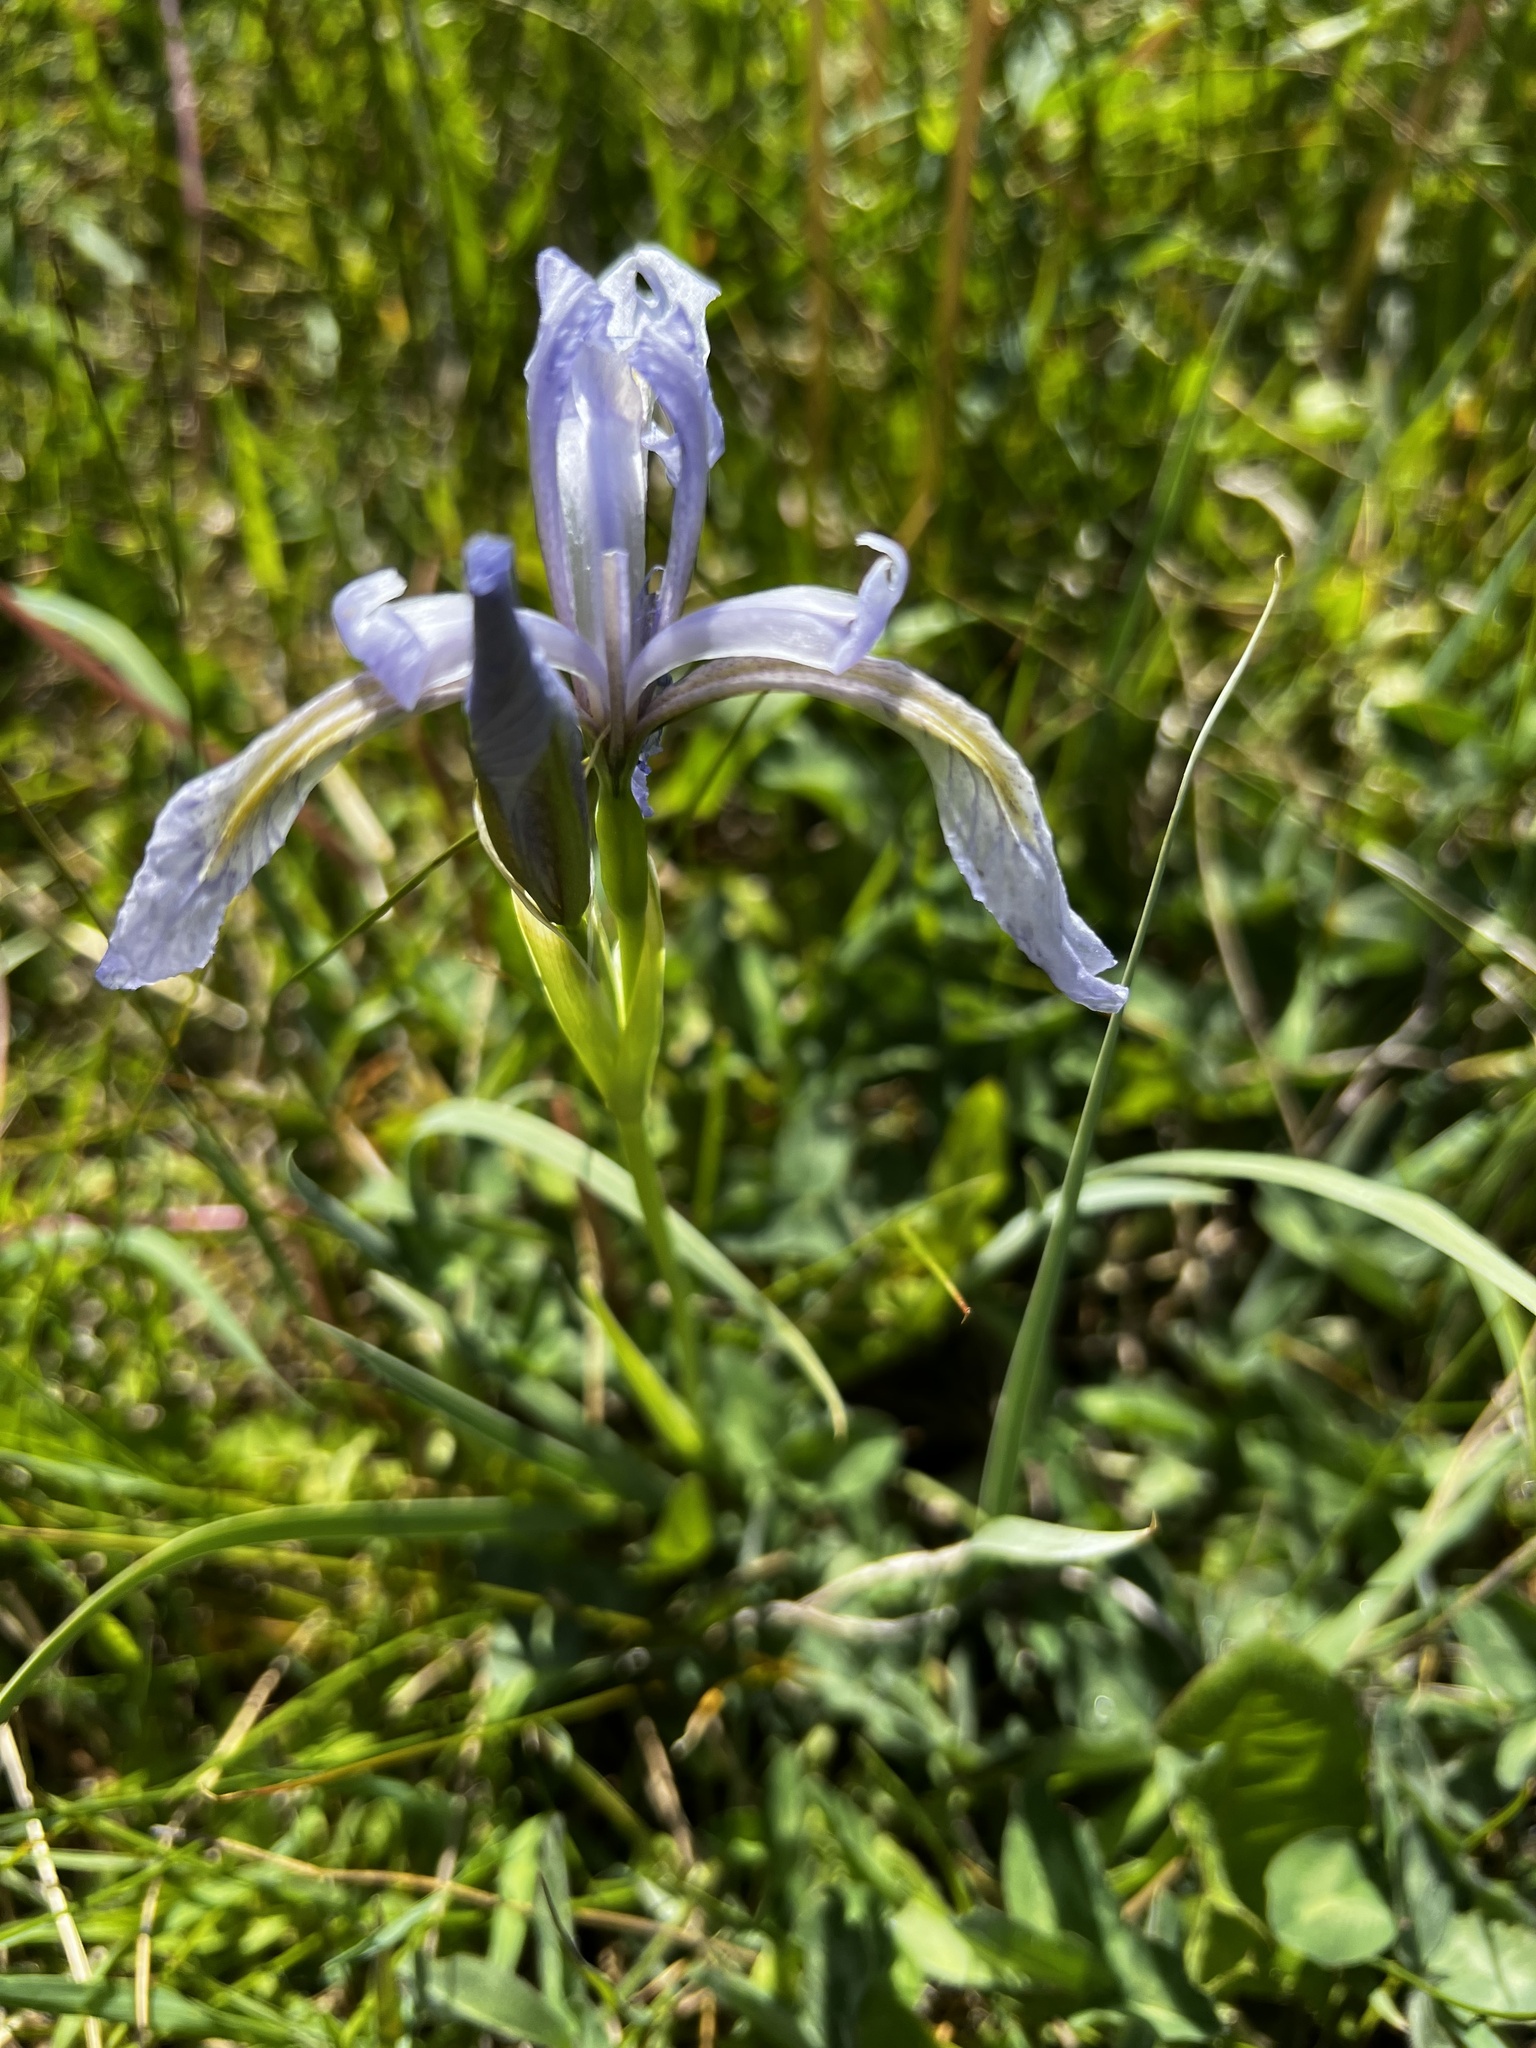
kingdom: Plantae
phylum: Tracheophyta
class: Liliopsida
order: Asparagales
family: Iridaceae
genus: Iris
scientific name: Iris missouriensis
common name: Rocky mountain iris
